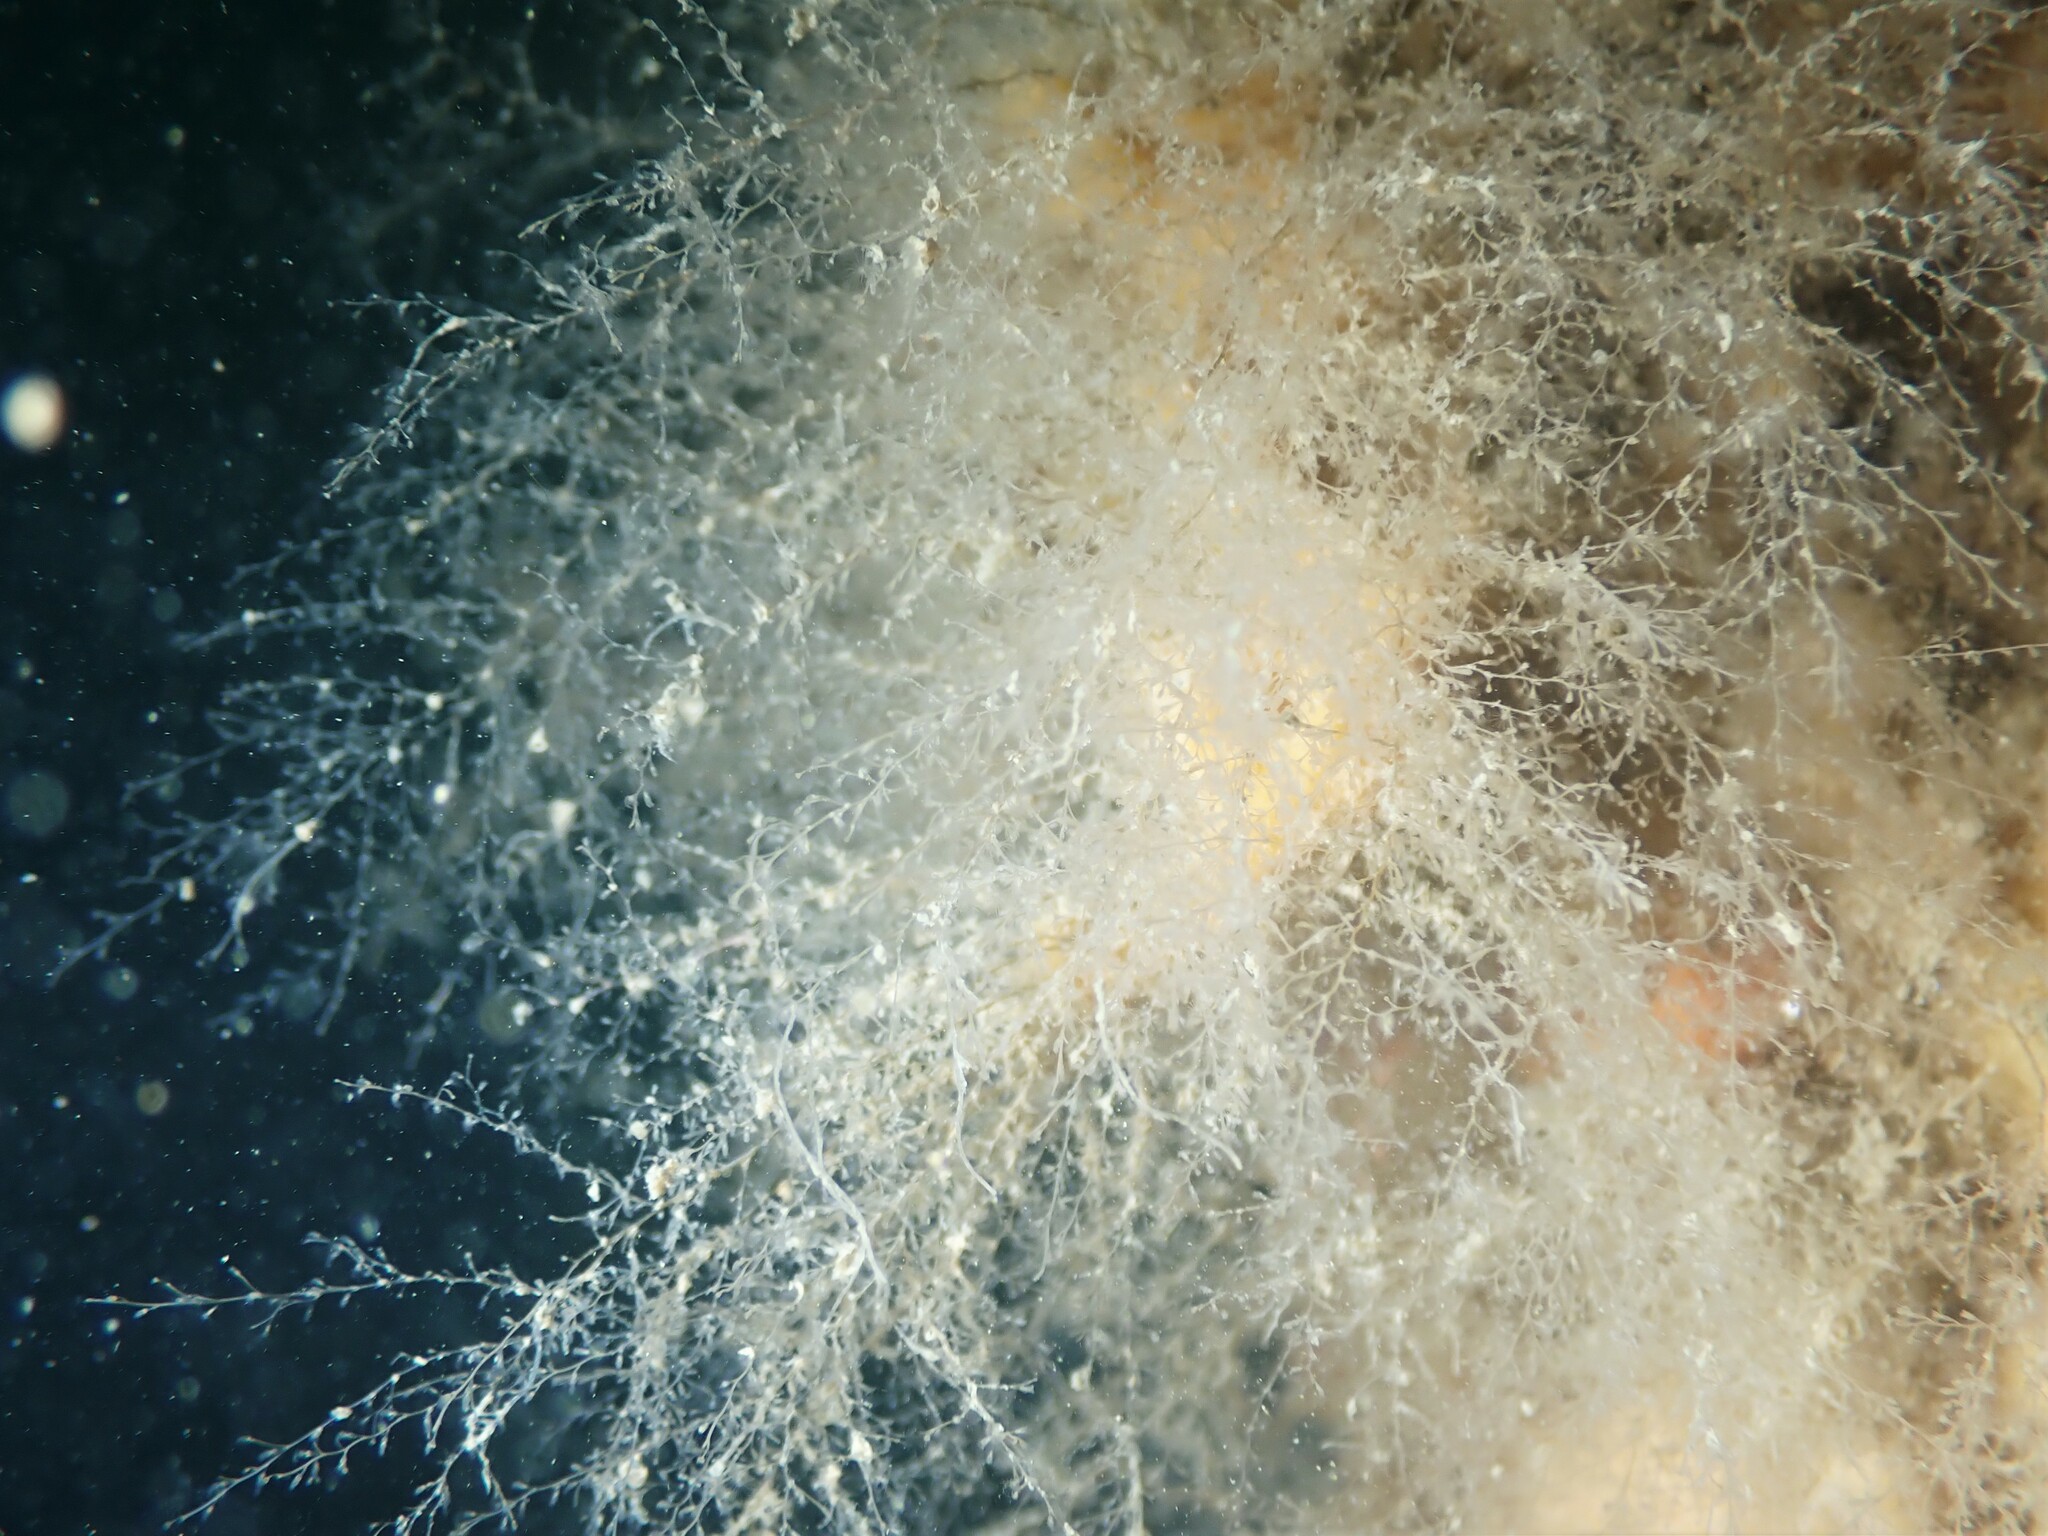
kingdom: Animalia
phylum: Cnidaria
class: Hydrozoa
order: Leptothecata
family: Campanulariidae
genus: Obelia
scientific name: Obelia dichotoma
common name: Sea thread hydroid
